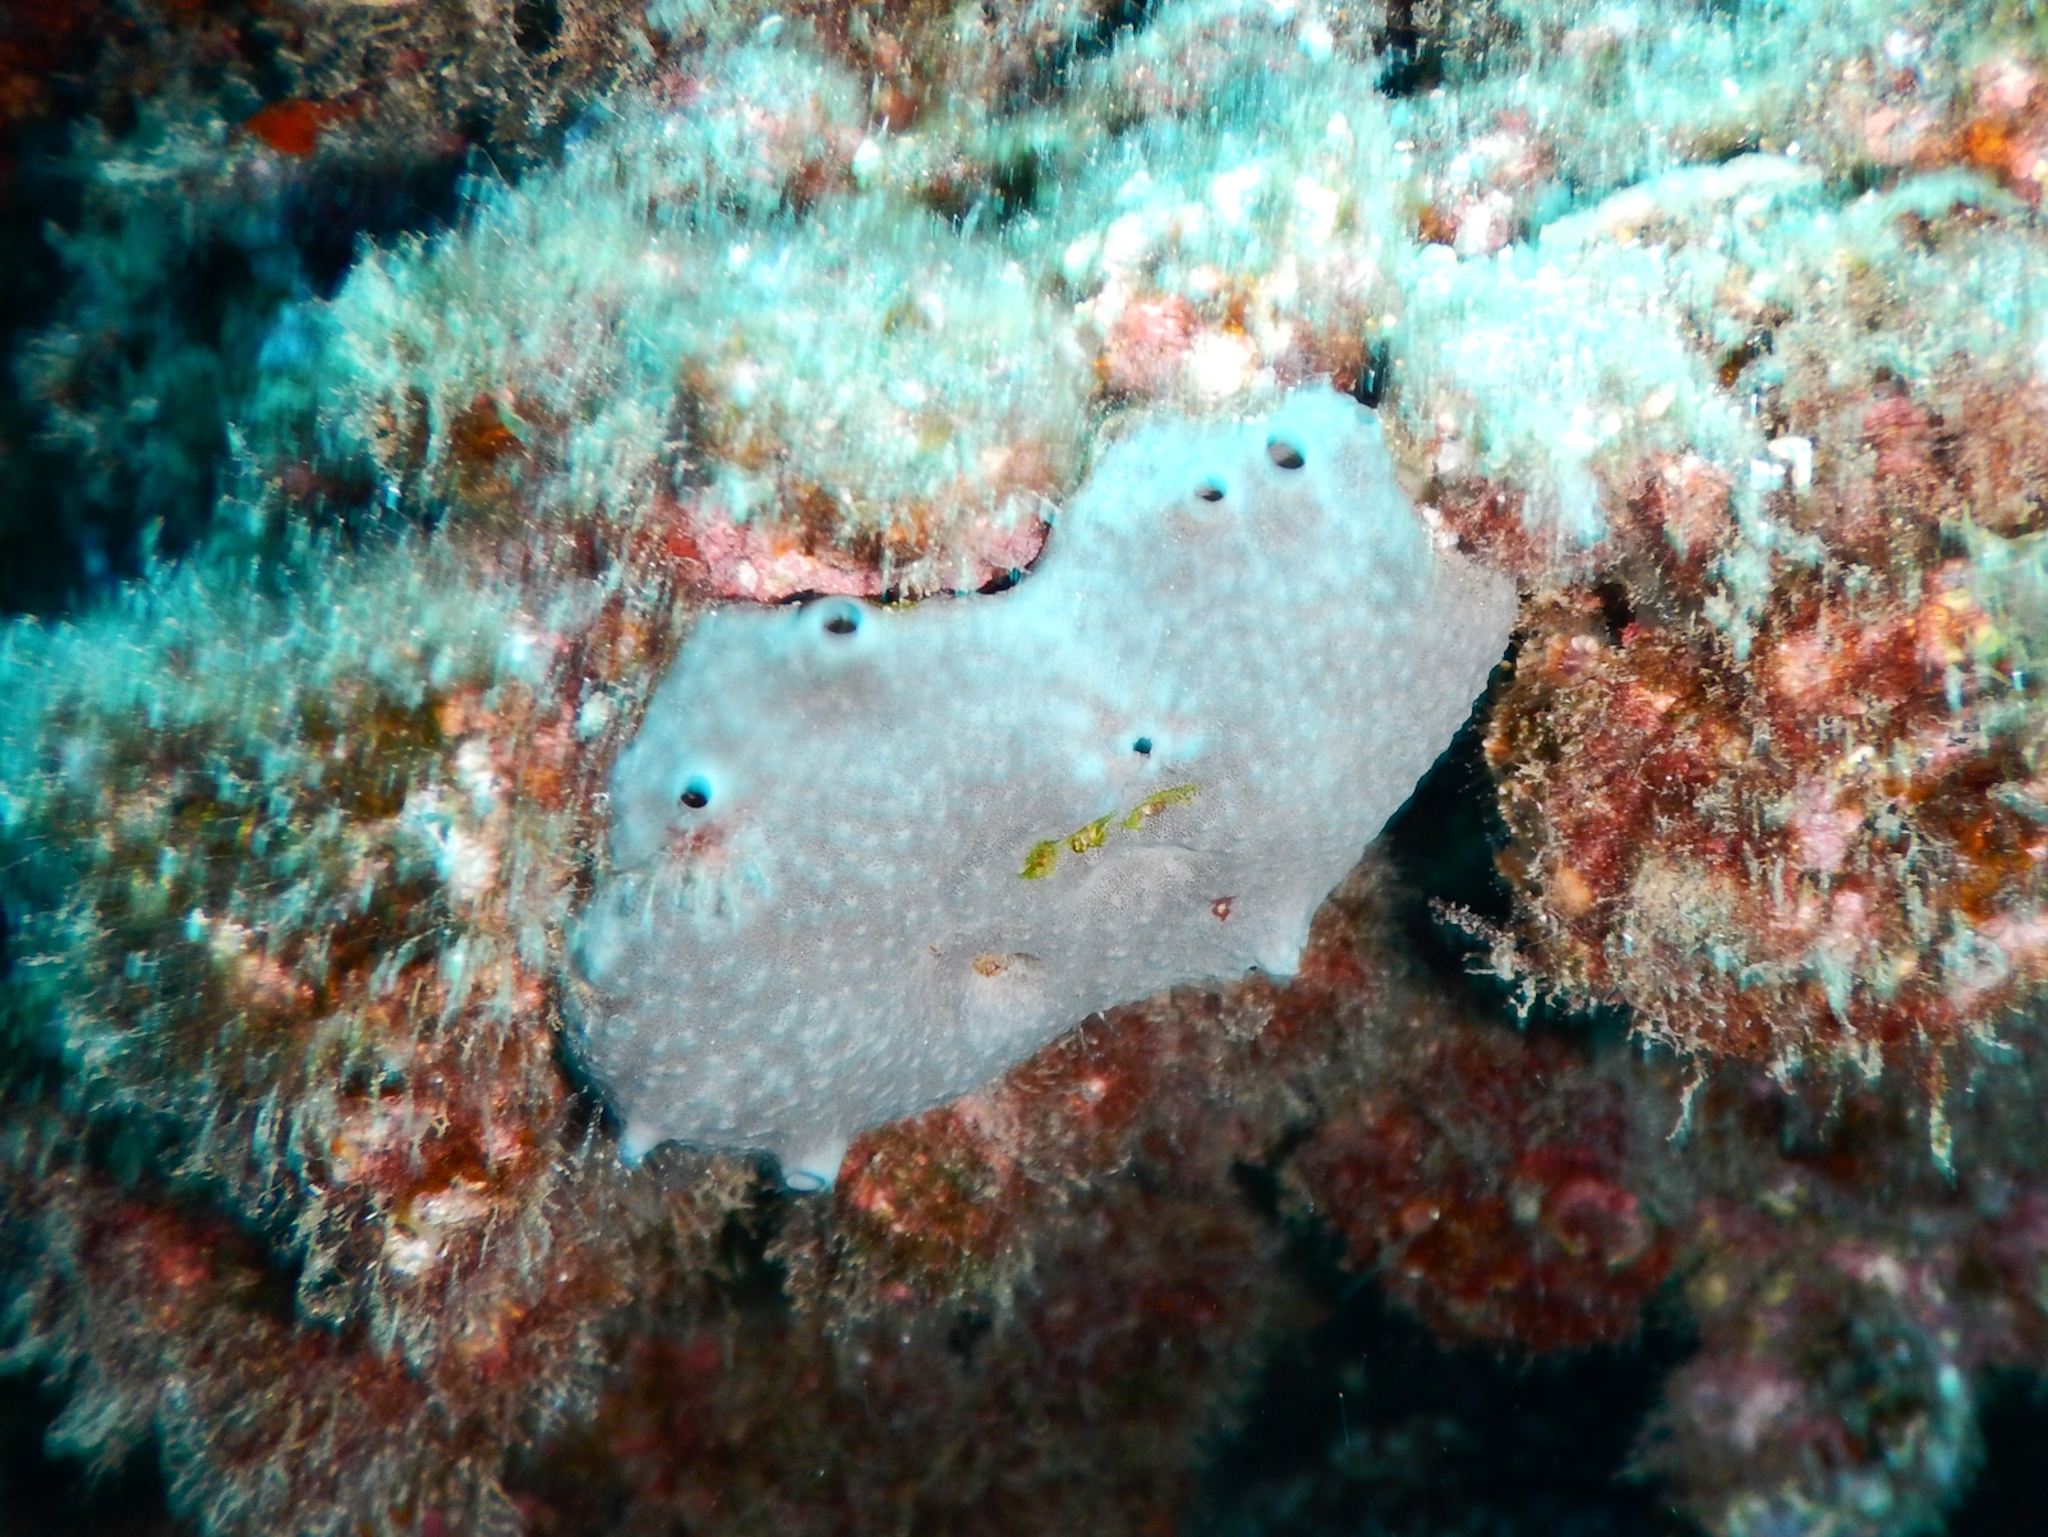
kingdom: Animalia
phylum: Porifera
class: Demospongiae
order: Dictyoceratida
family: Irciniidae
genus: Ircinia
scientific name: Ircinia oros
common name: Grey leather sponge
